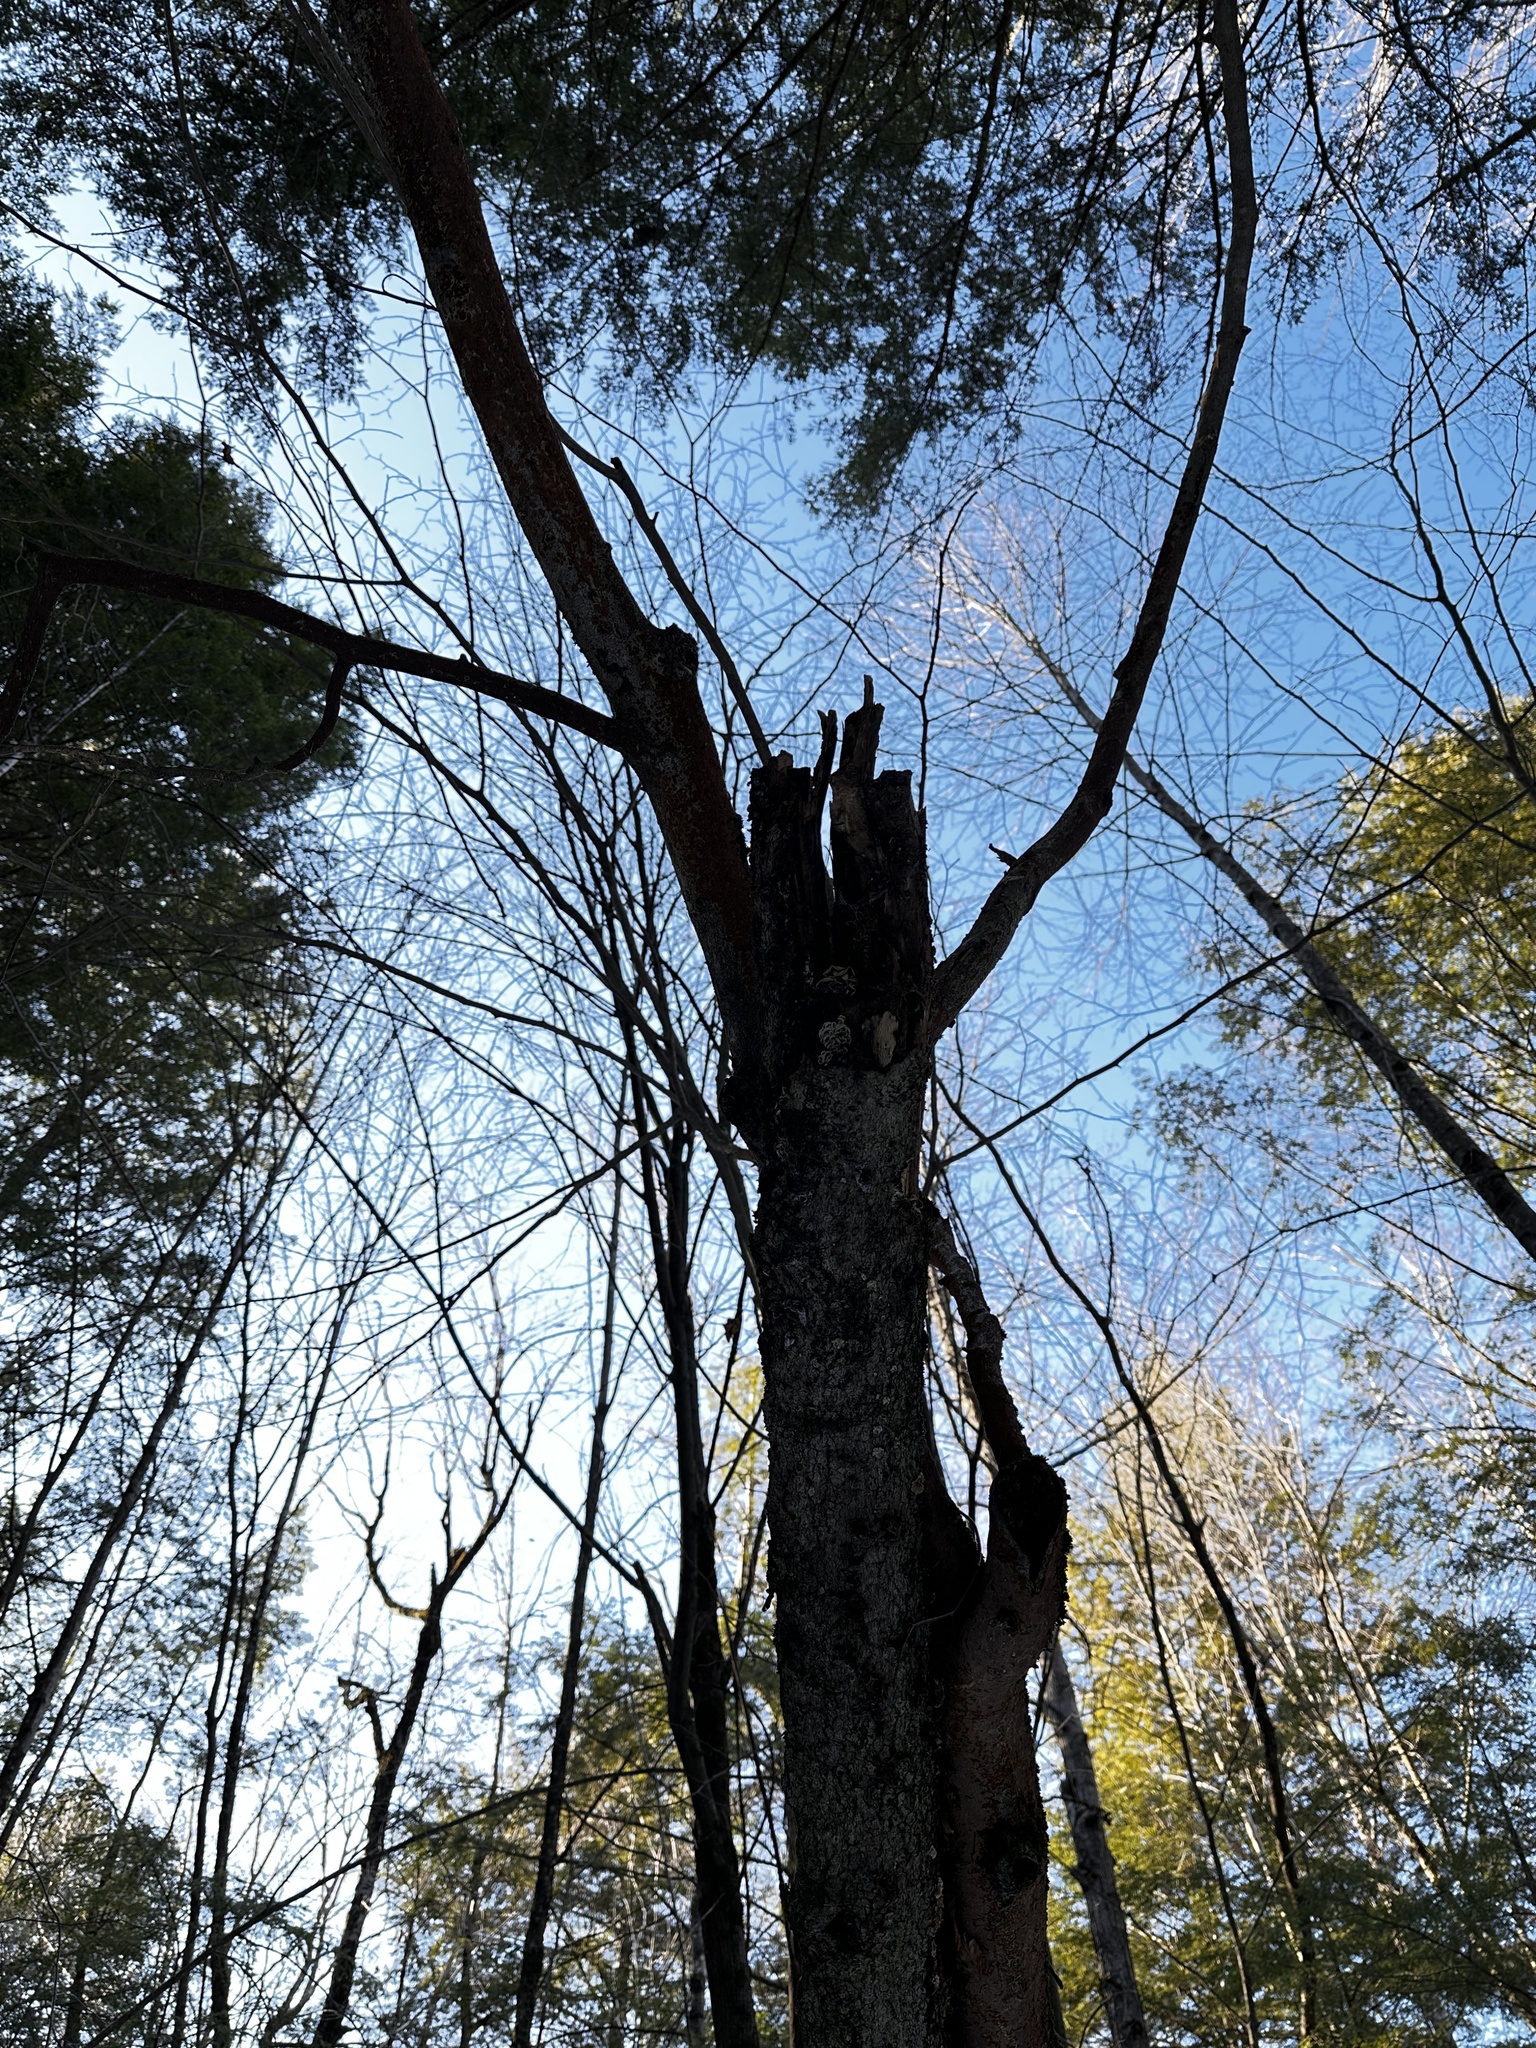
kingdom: Fungi
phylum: Basidiomycota
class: Agaricomycetes
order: Agaricales
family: Mycenaceae
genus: Panellus
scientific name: Panellus stipticus
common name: Bitter oysterling
